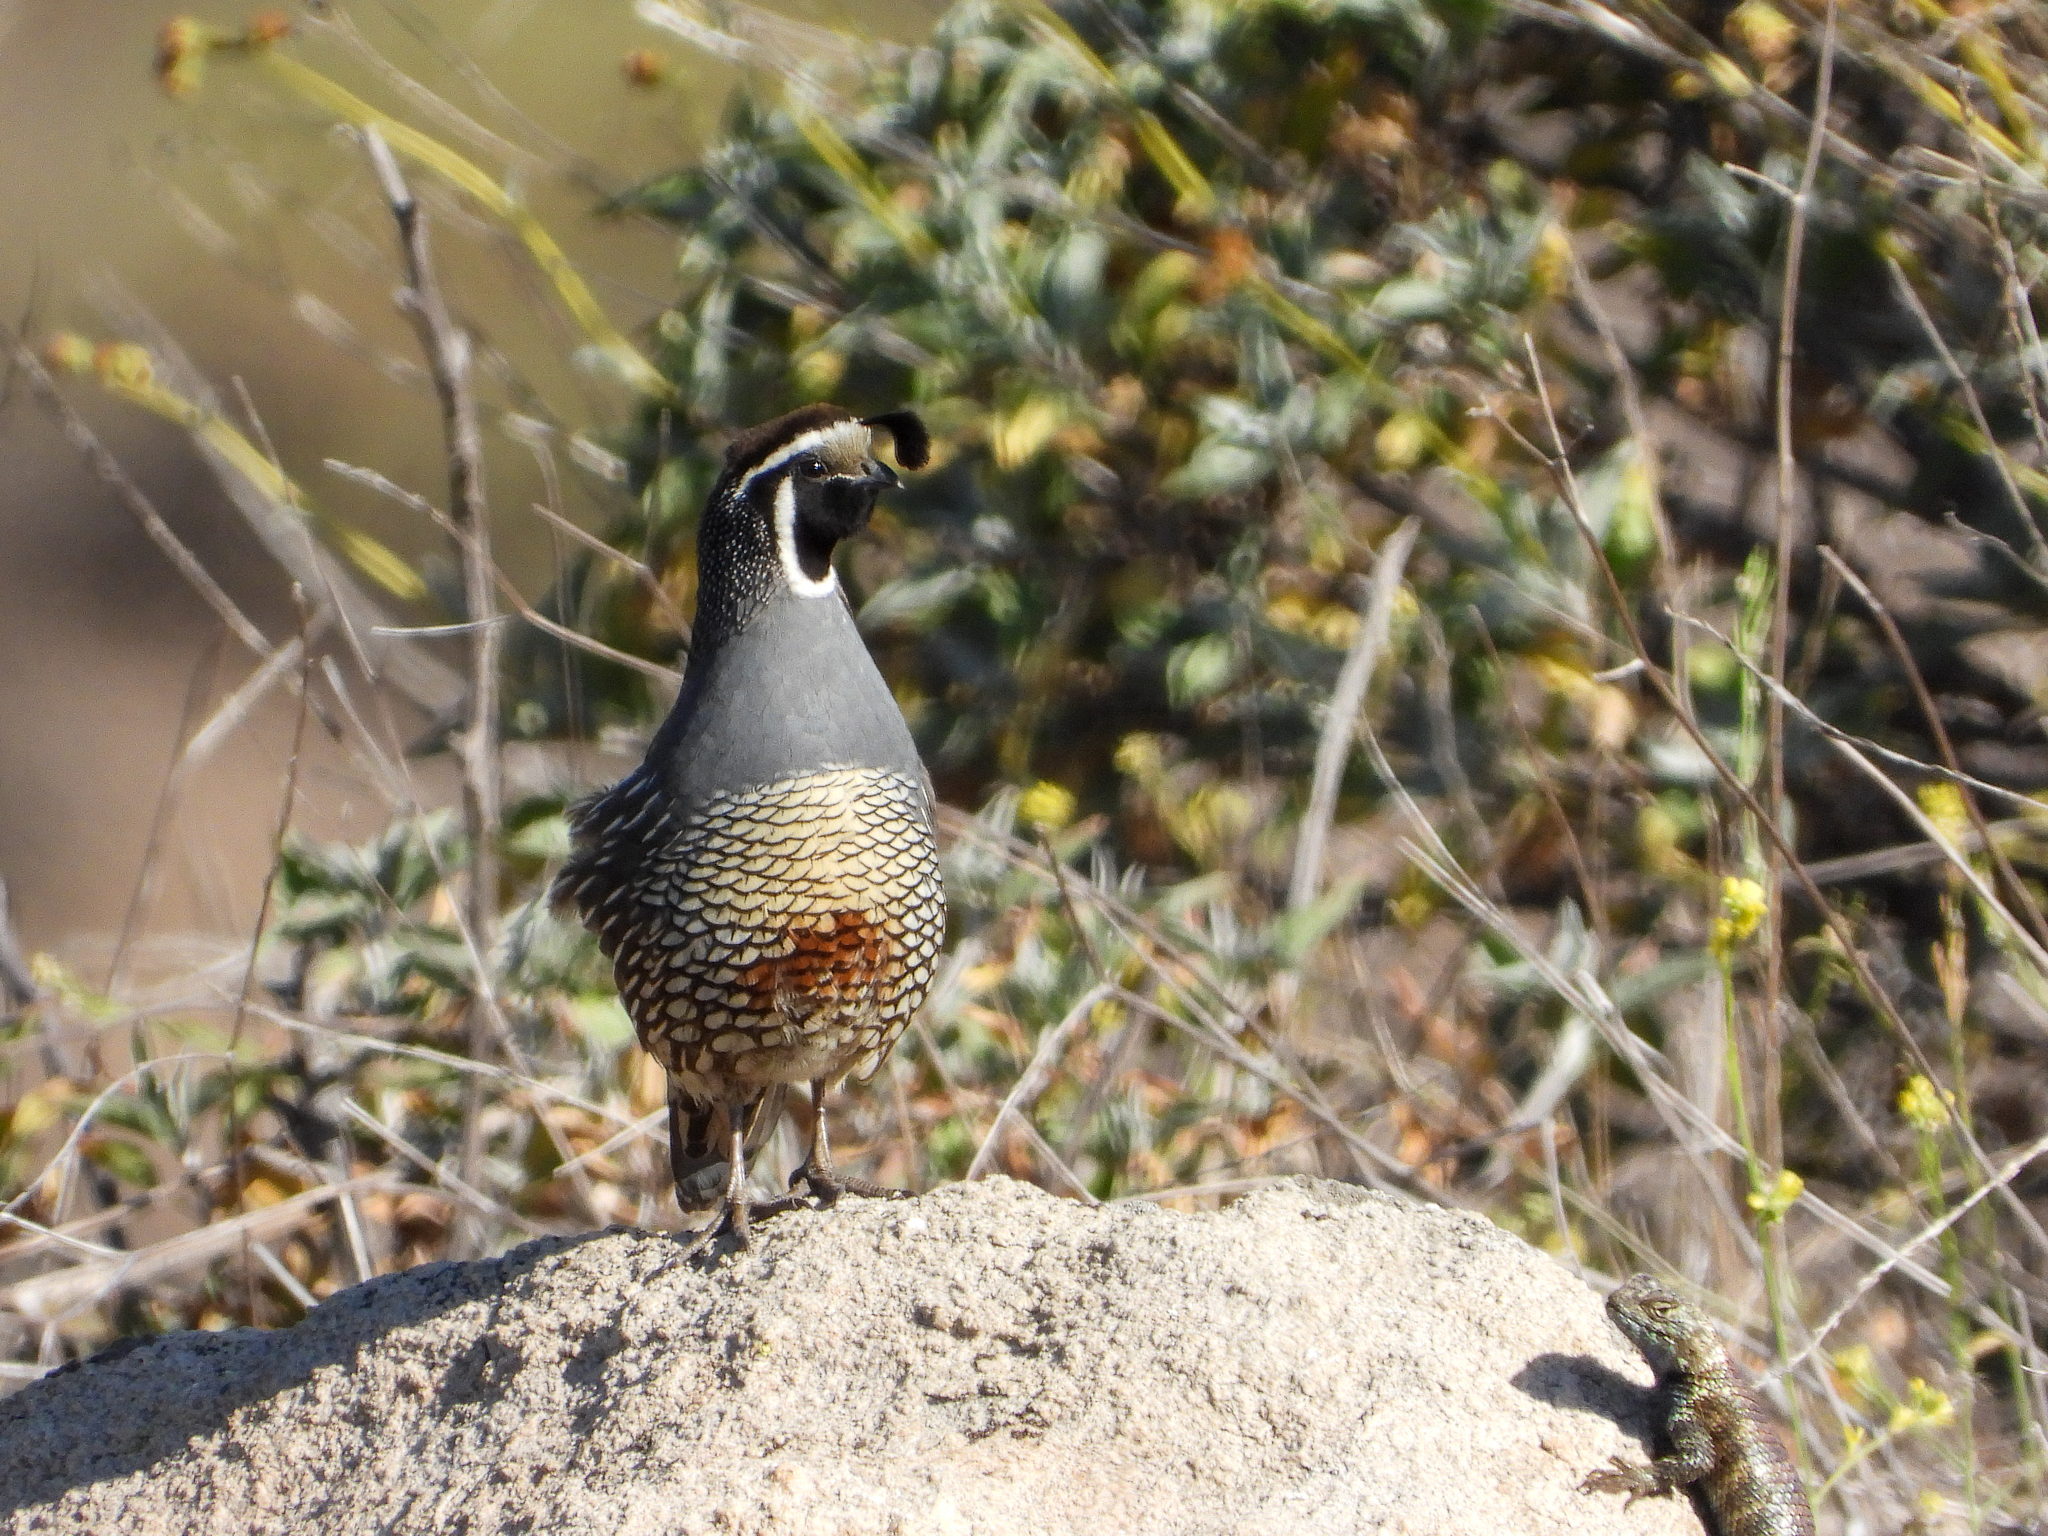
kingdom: Animalia
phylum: Chordata
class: Aves
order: Galliformes
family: Odontophoridae
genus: Callipepla
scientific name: Callipepla californica
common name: California quail
